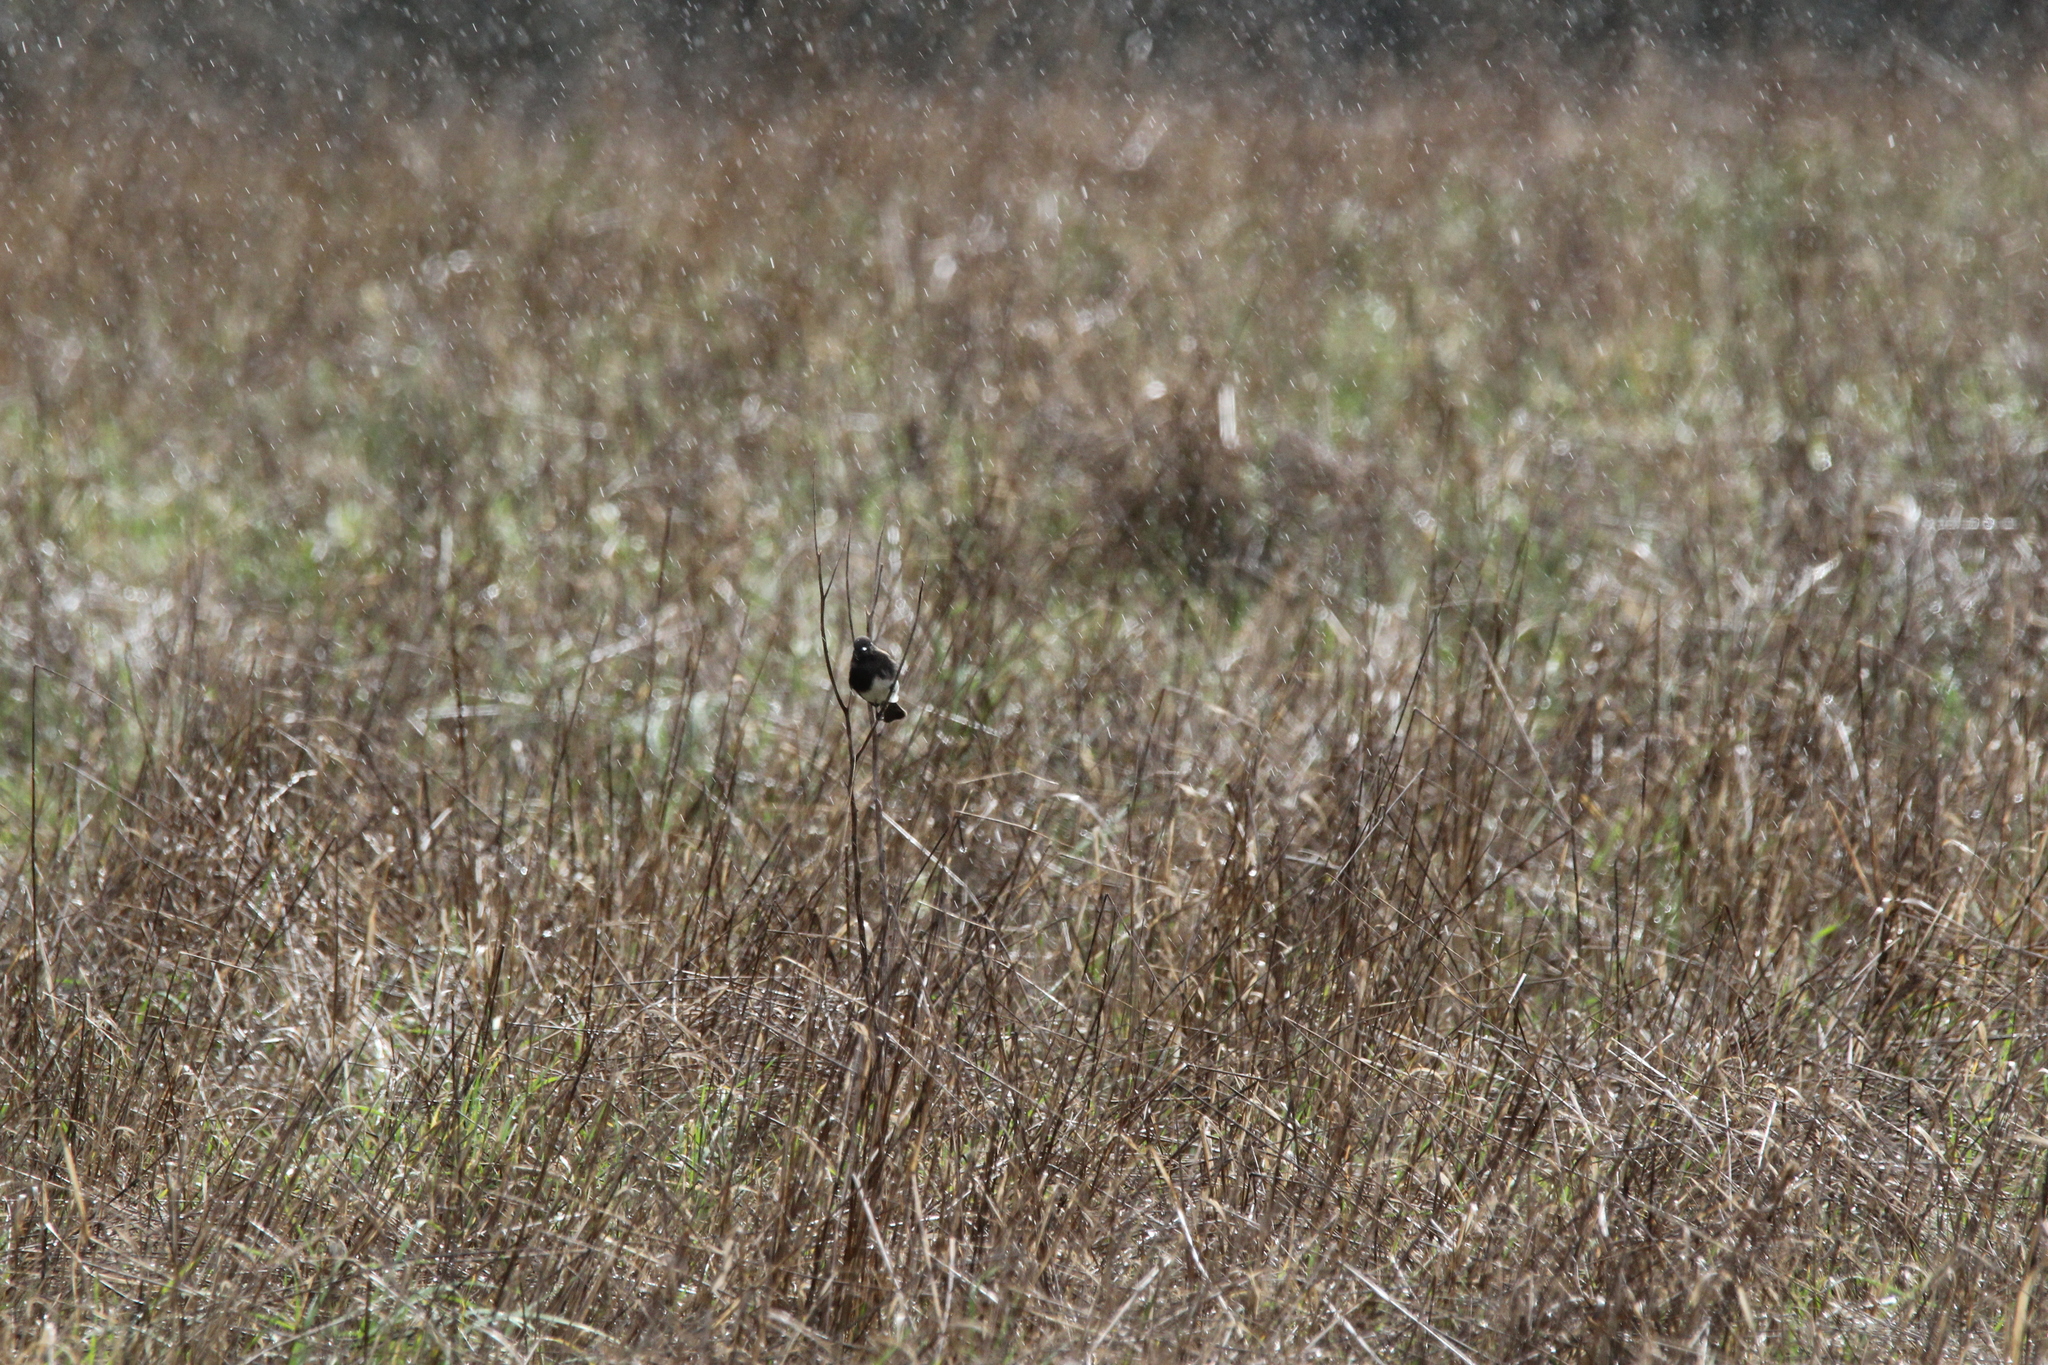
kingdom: Animalia
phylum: Chordata
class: Aves
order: Passeriformes
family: Tyrannidae
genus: Sayornis
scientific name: Sayornis nigricans
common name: Black phoebe
